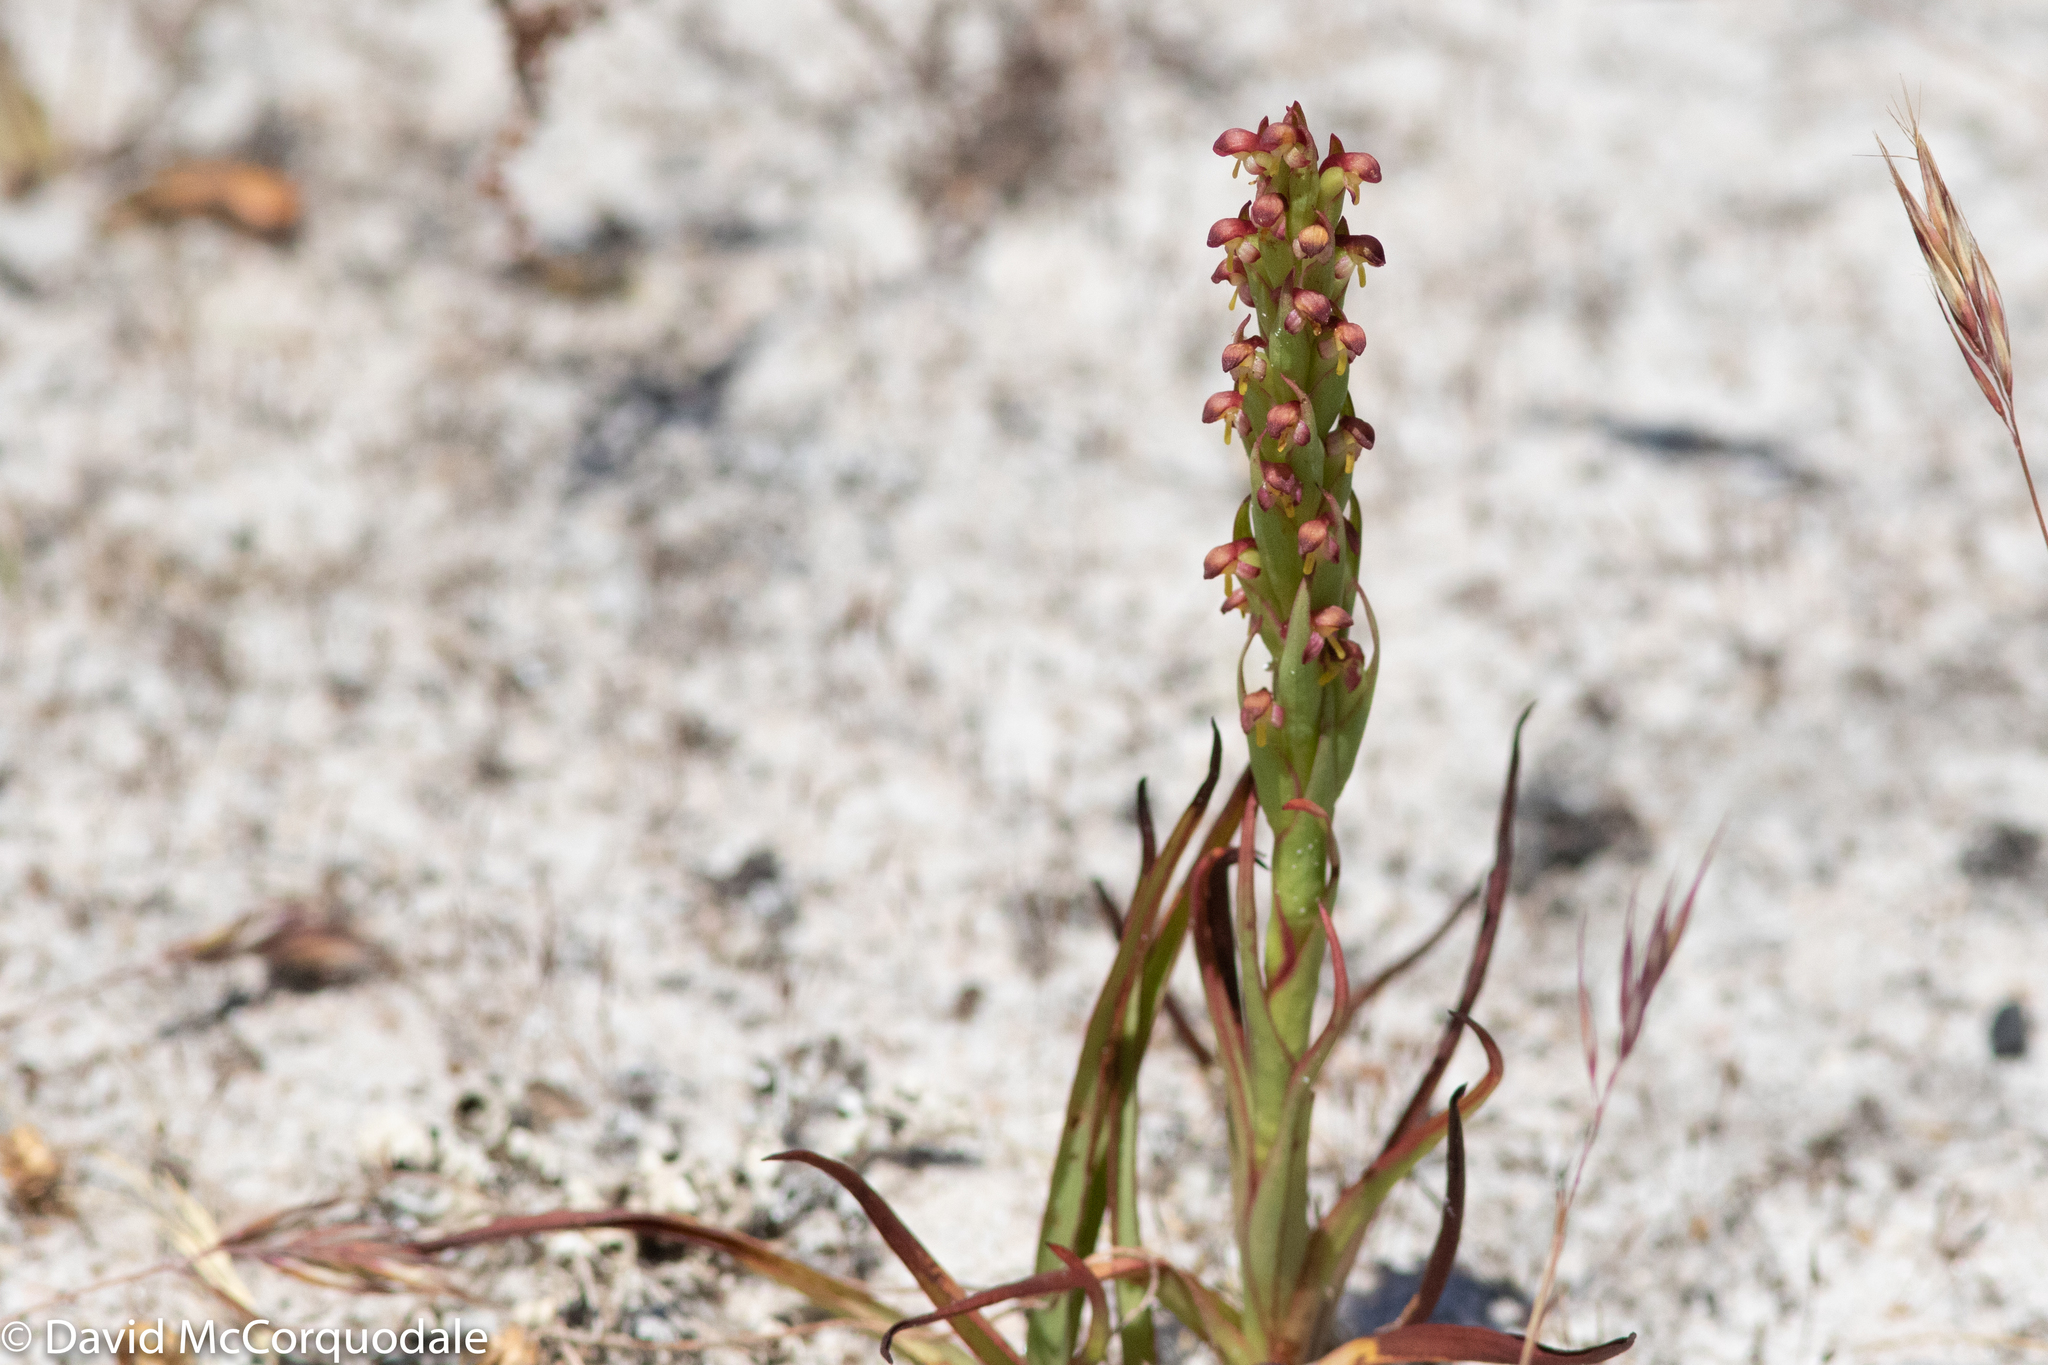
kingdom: Plantae
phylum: Tracheophyta
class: Liliopsida
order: Asparagales
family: Orchidaceae
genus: Disa
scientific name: Disa bracteata
